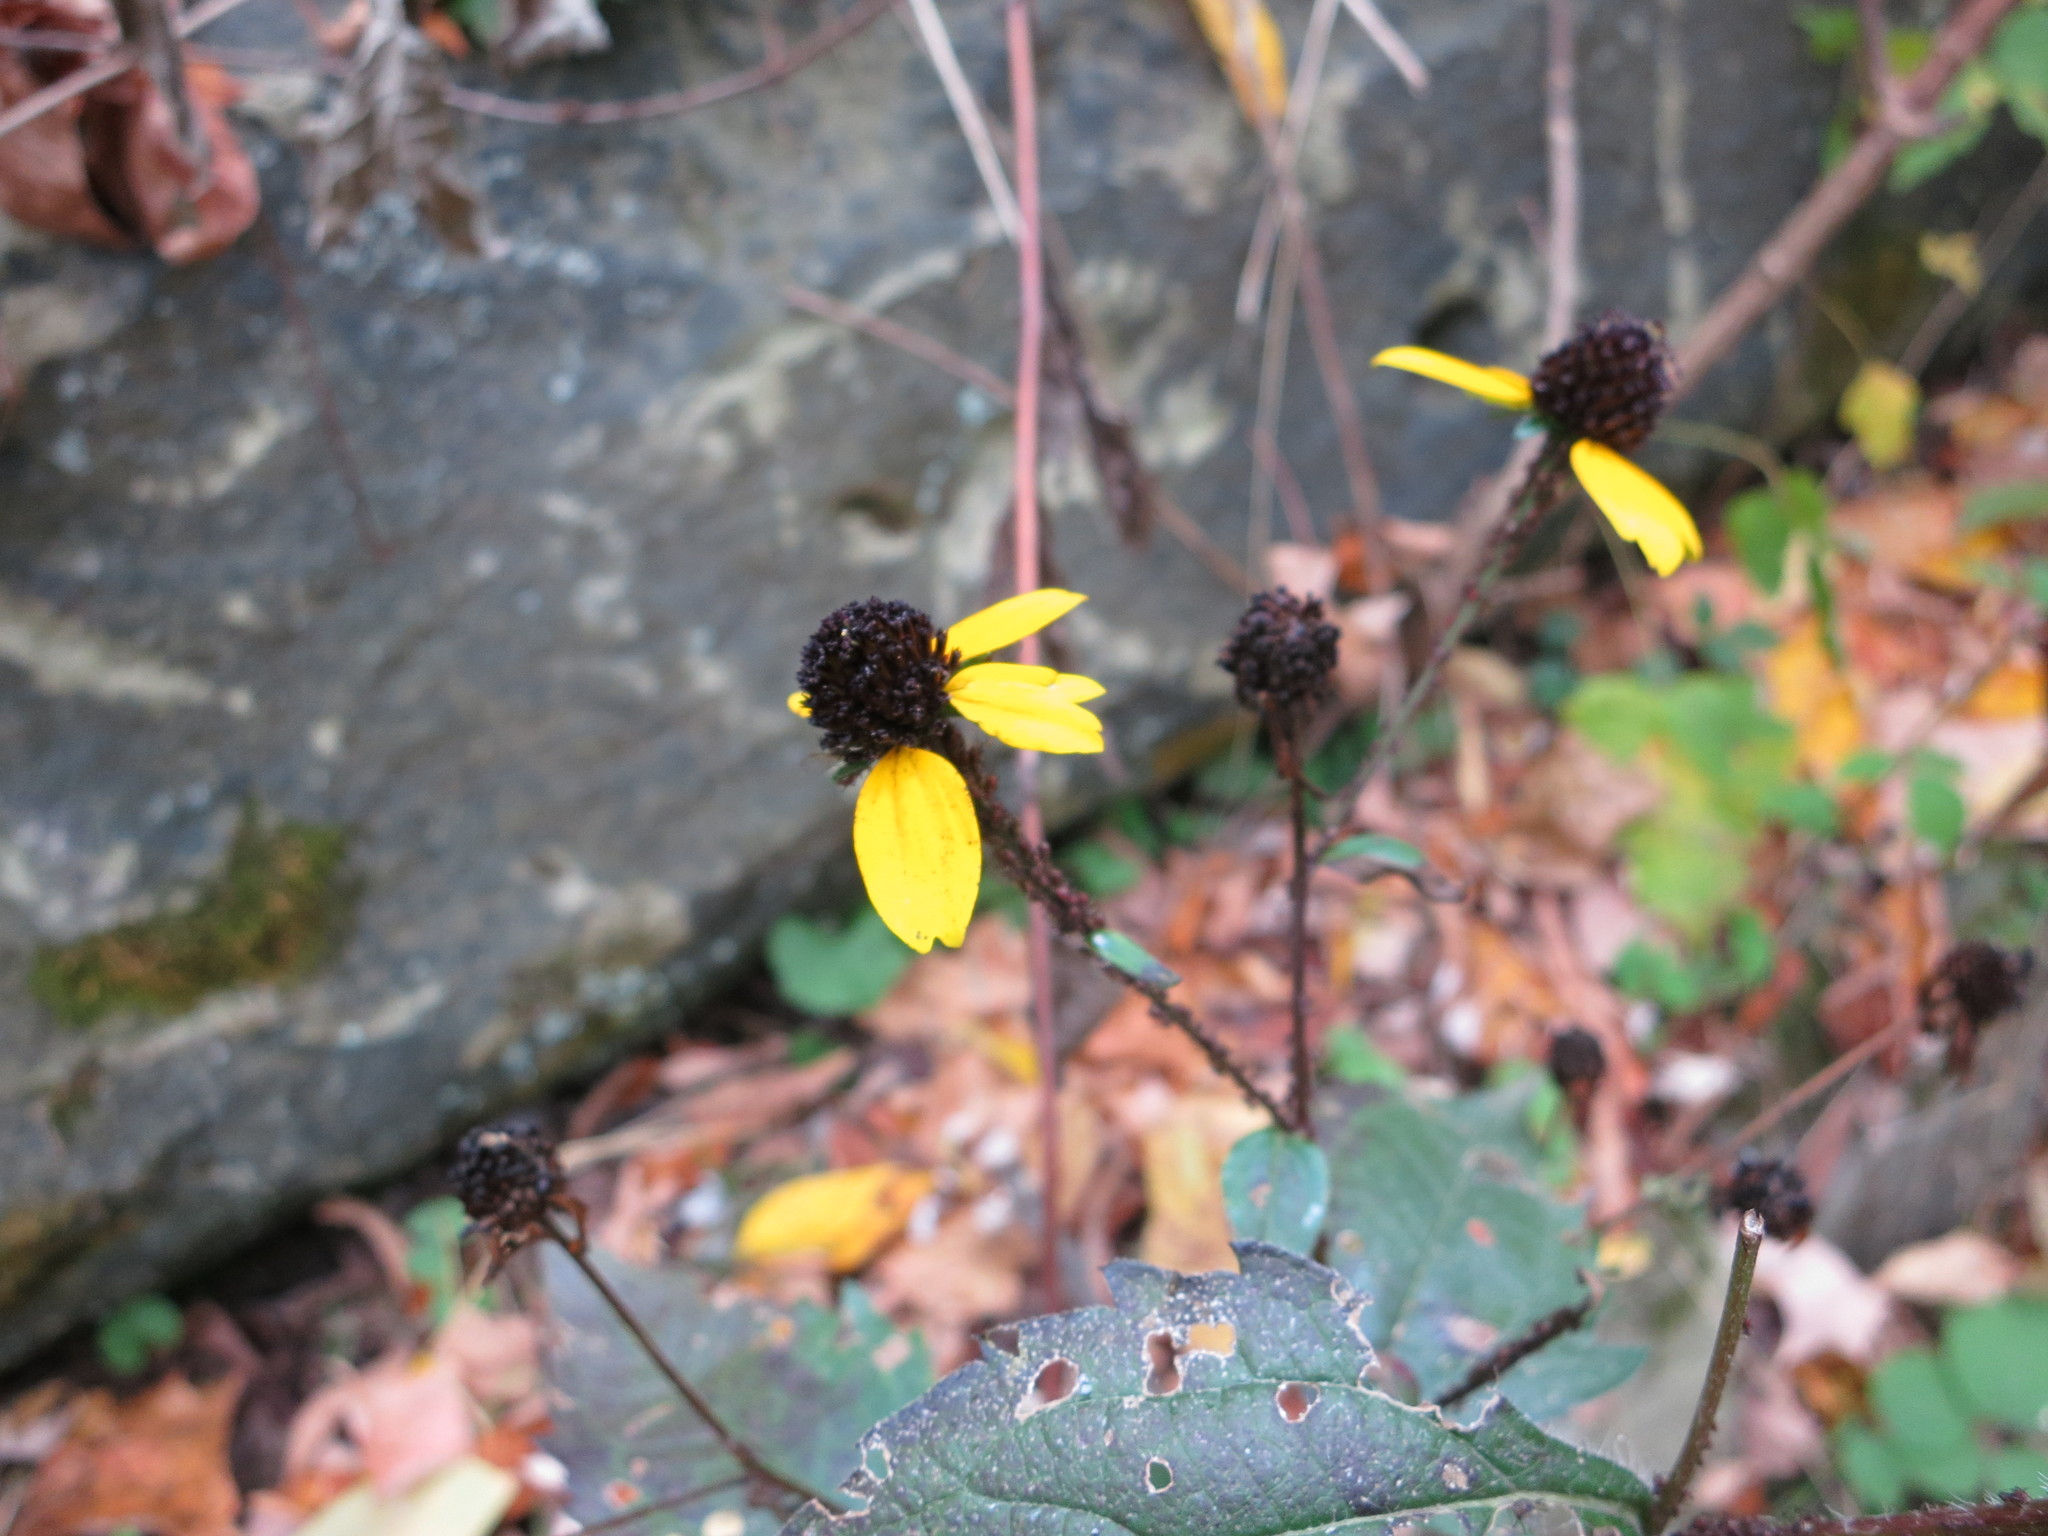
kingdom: Plantae
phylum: Tracheophyta
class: Magnoliopsida
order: Asterales
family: Asteraceae
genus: Rudbeckia
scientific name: Rudbeckia triloba
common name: Thin-leaved coneflower
